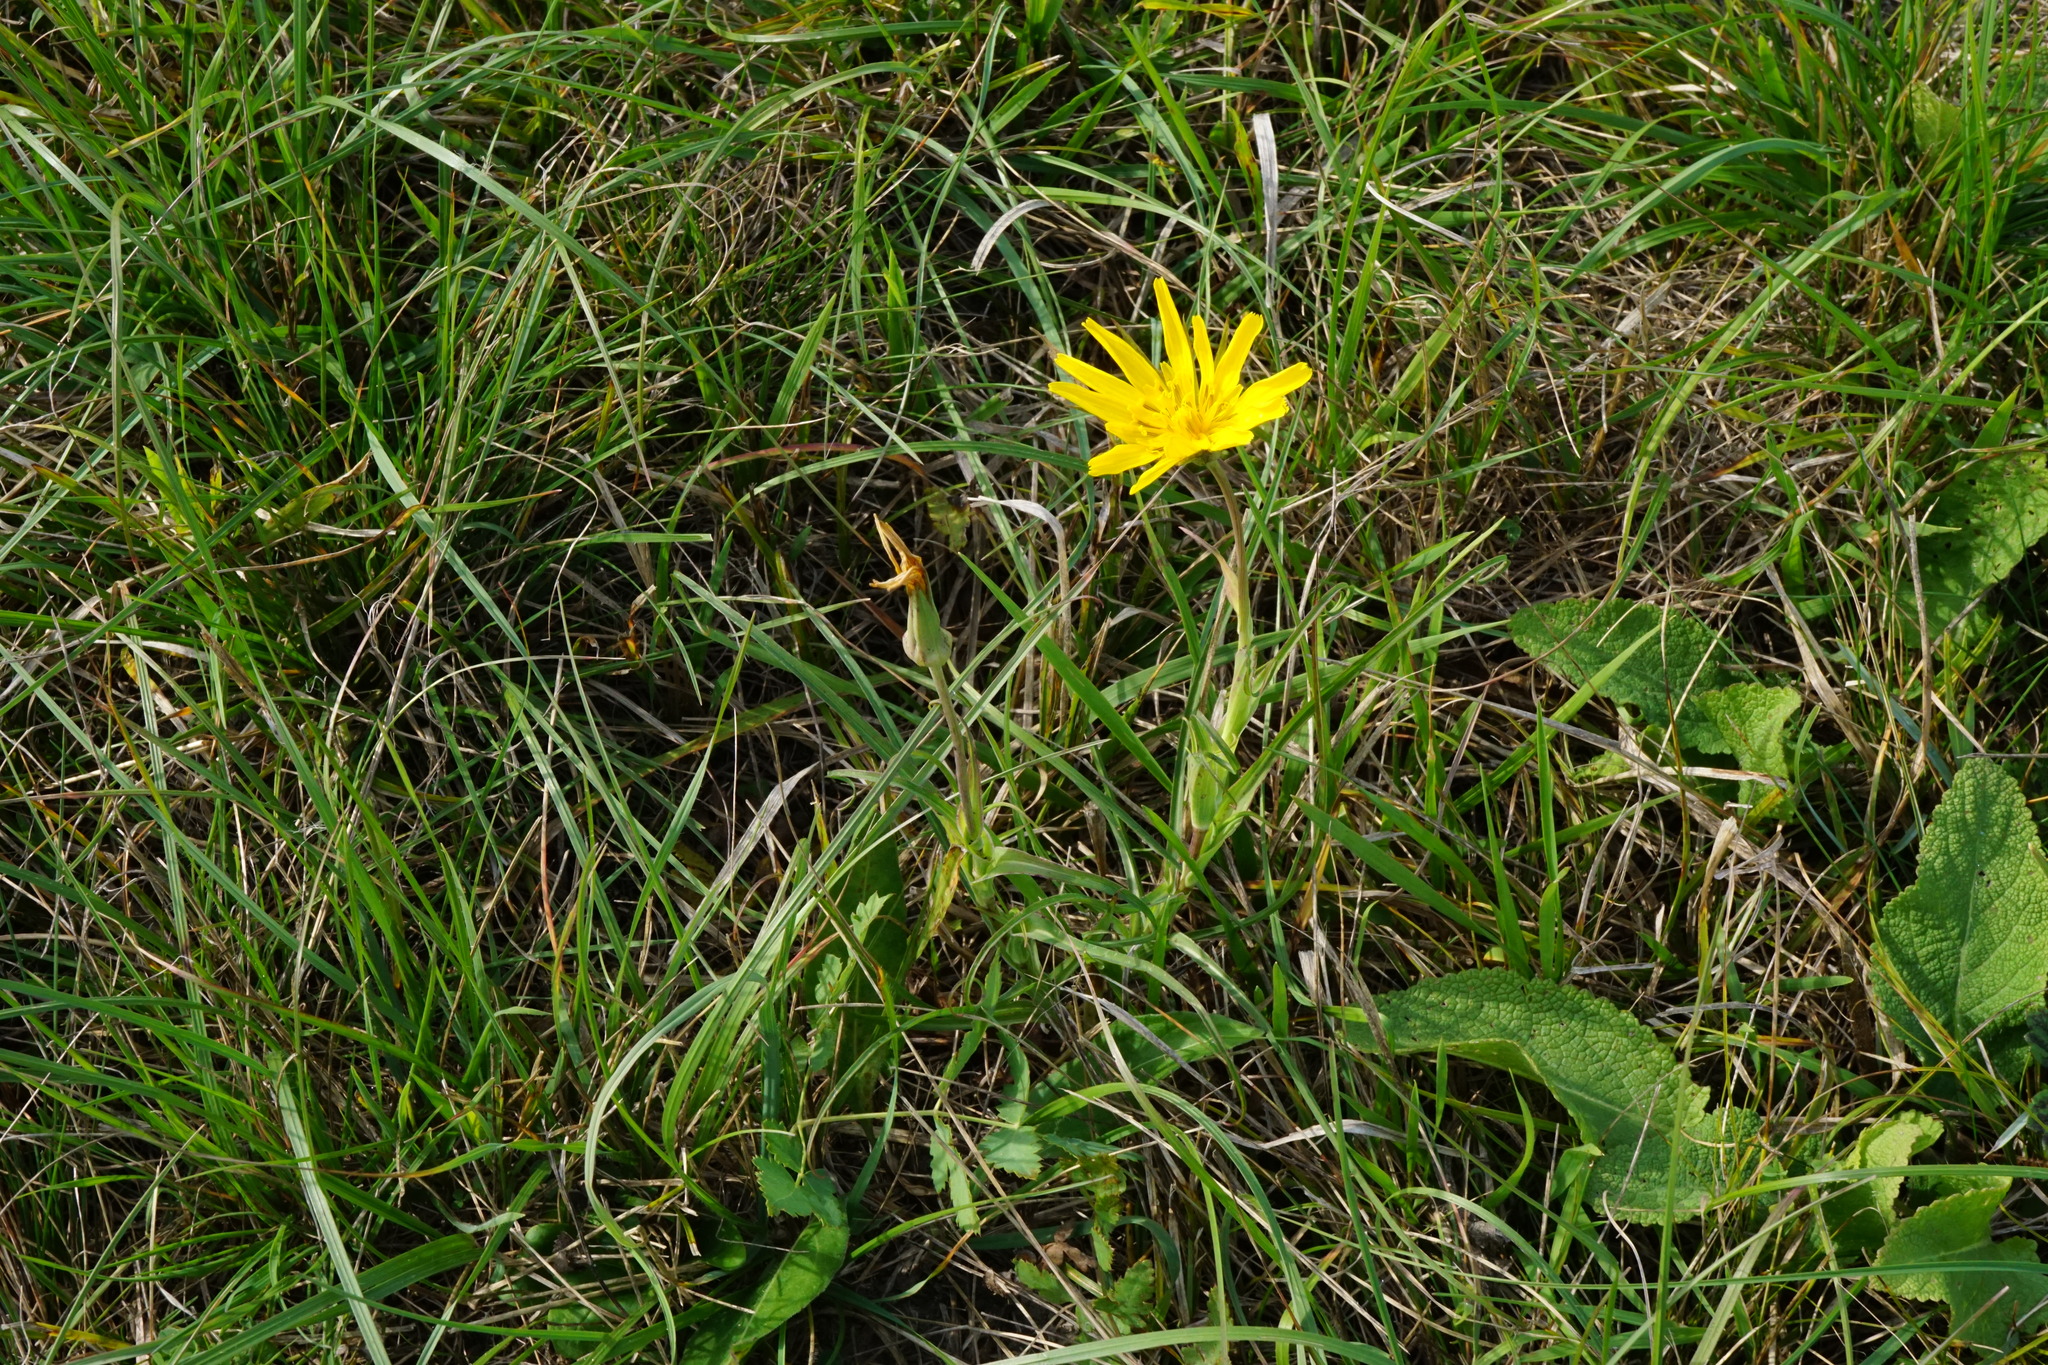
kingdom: Plantae
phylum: Tracheophyta
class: Magnoliopsida
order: Asterales
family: Asteraceae
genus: Tragopogon
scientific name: Tragopogon orientalis
